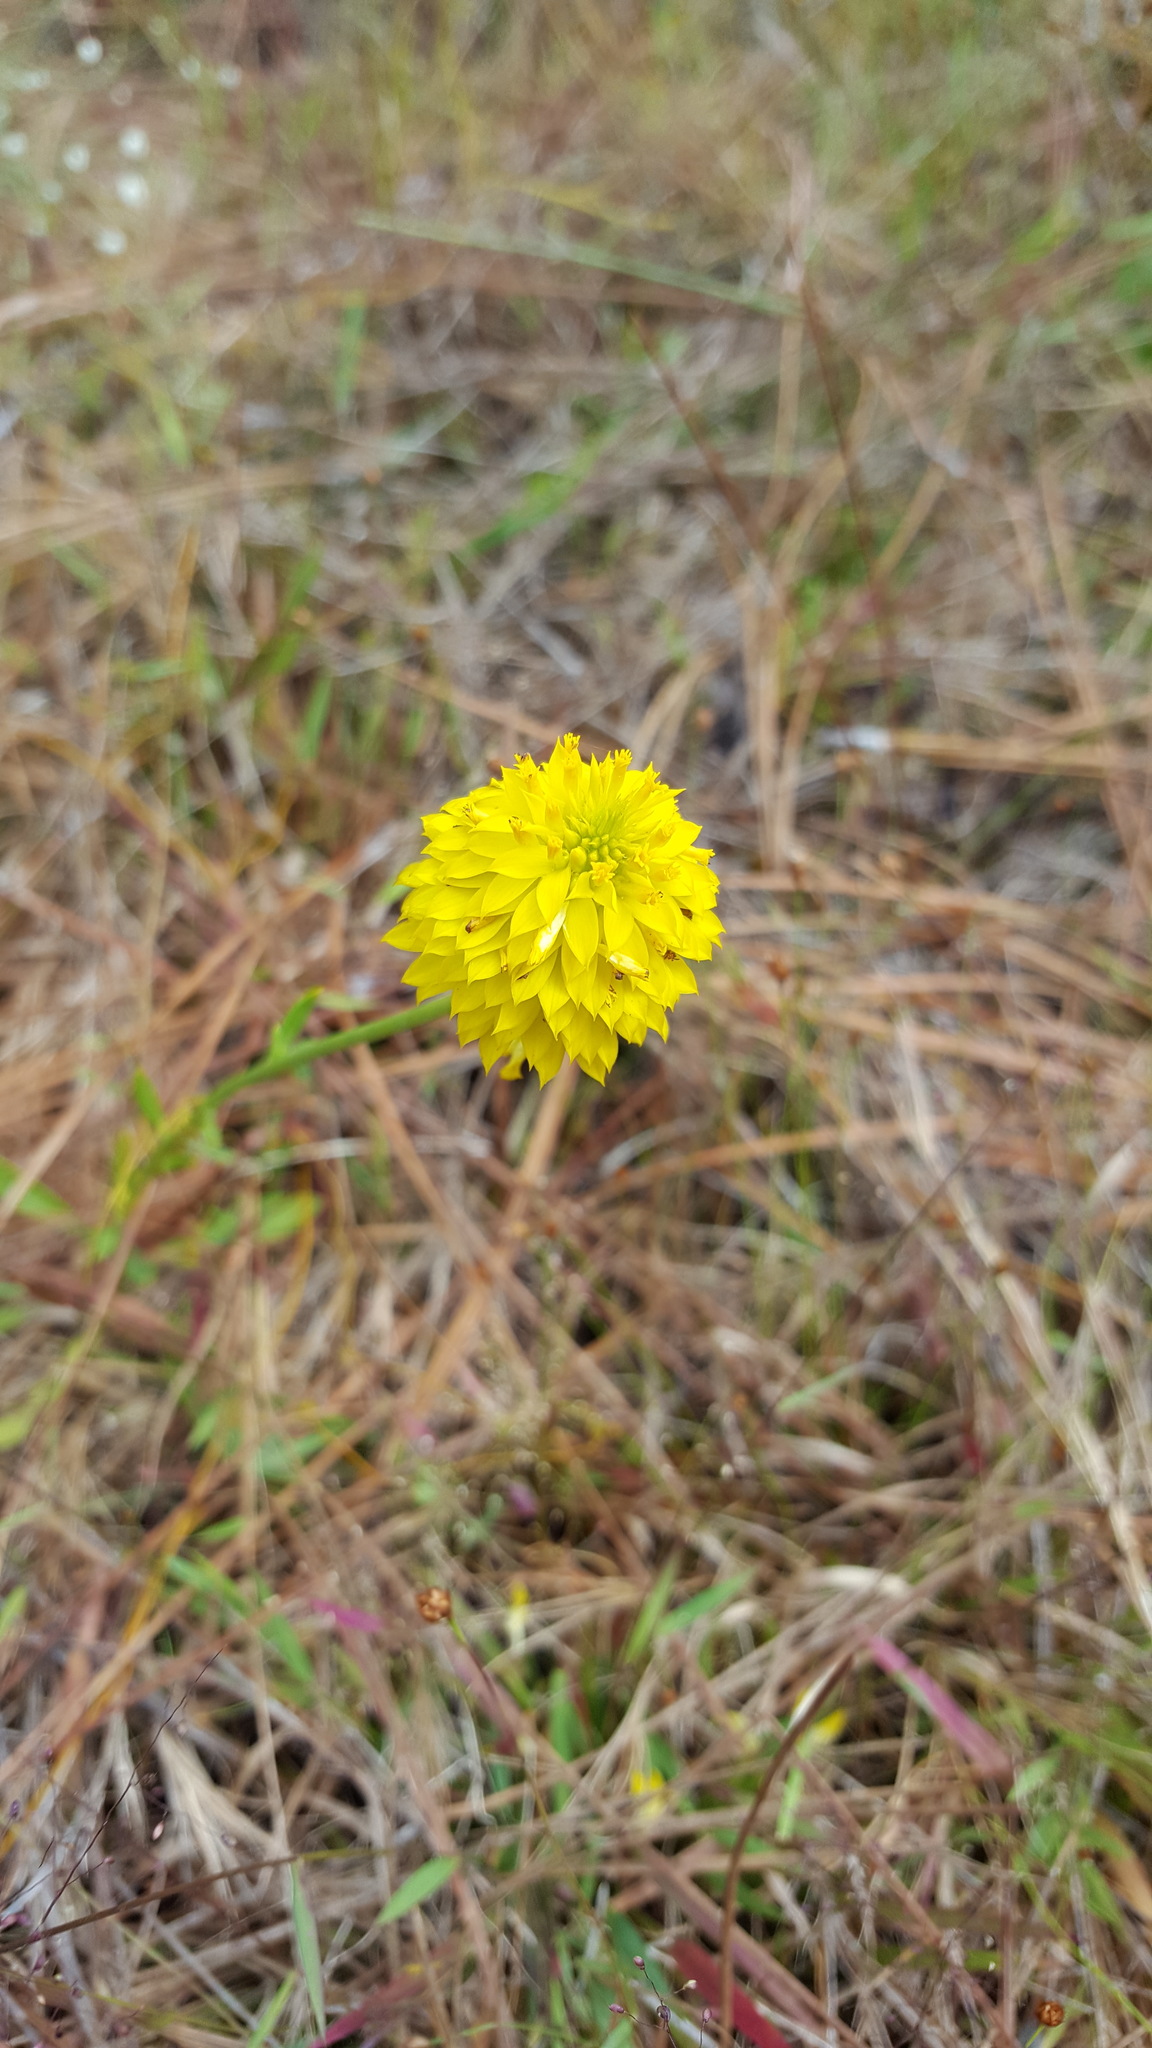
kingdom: Plantae
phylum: Tracheophyta
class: Magnoliopsida
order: Fabales
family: Polygalaceae
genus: Polygala
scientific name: Polygala rugelii
